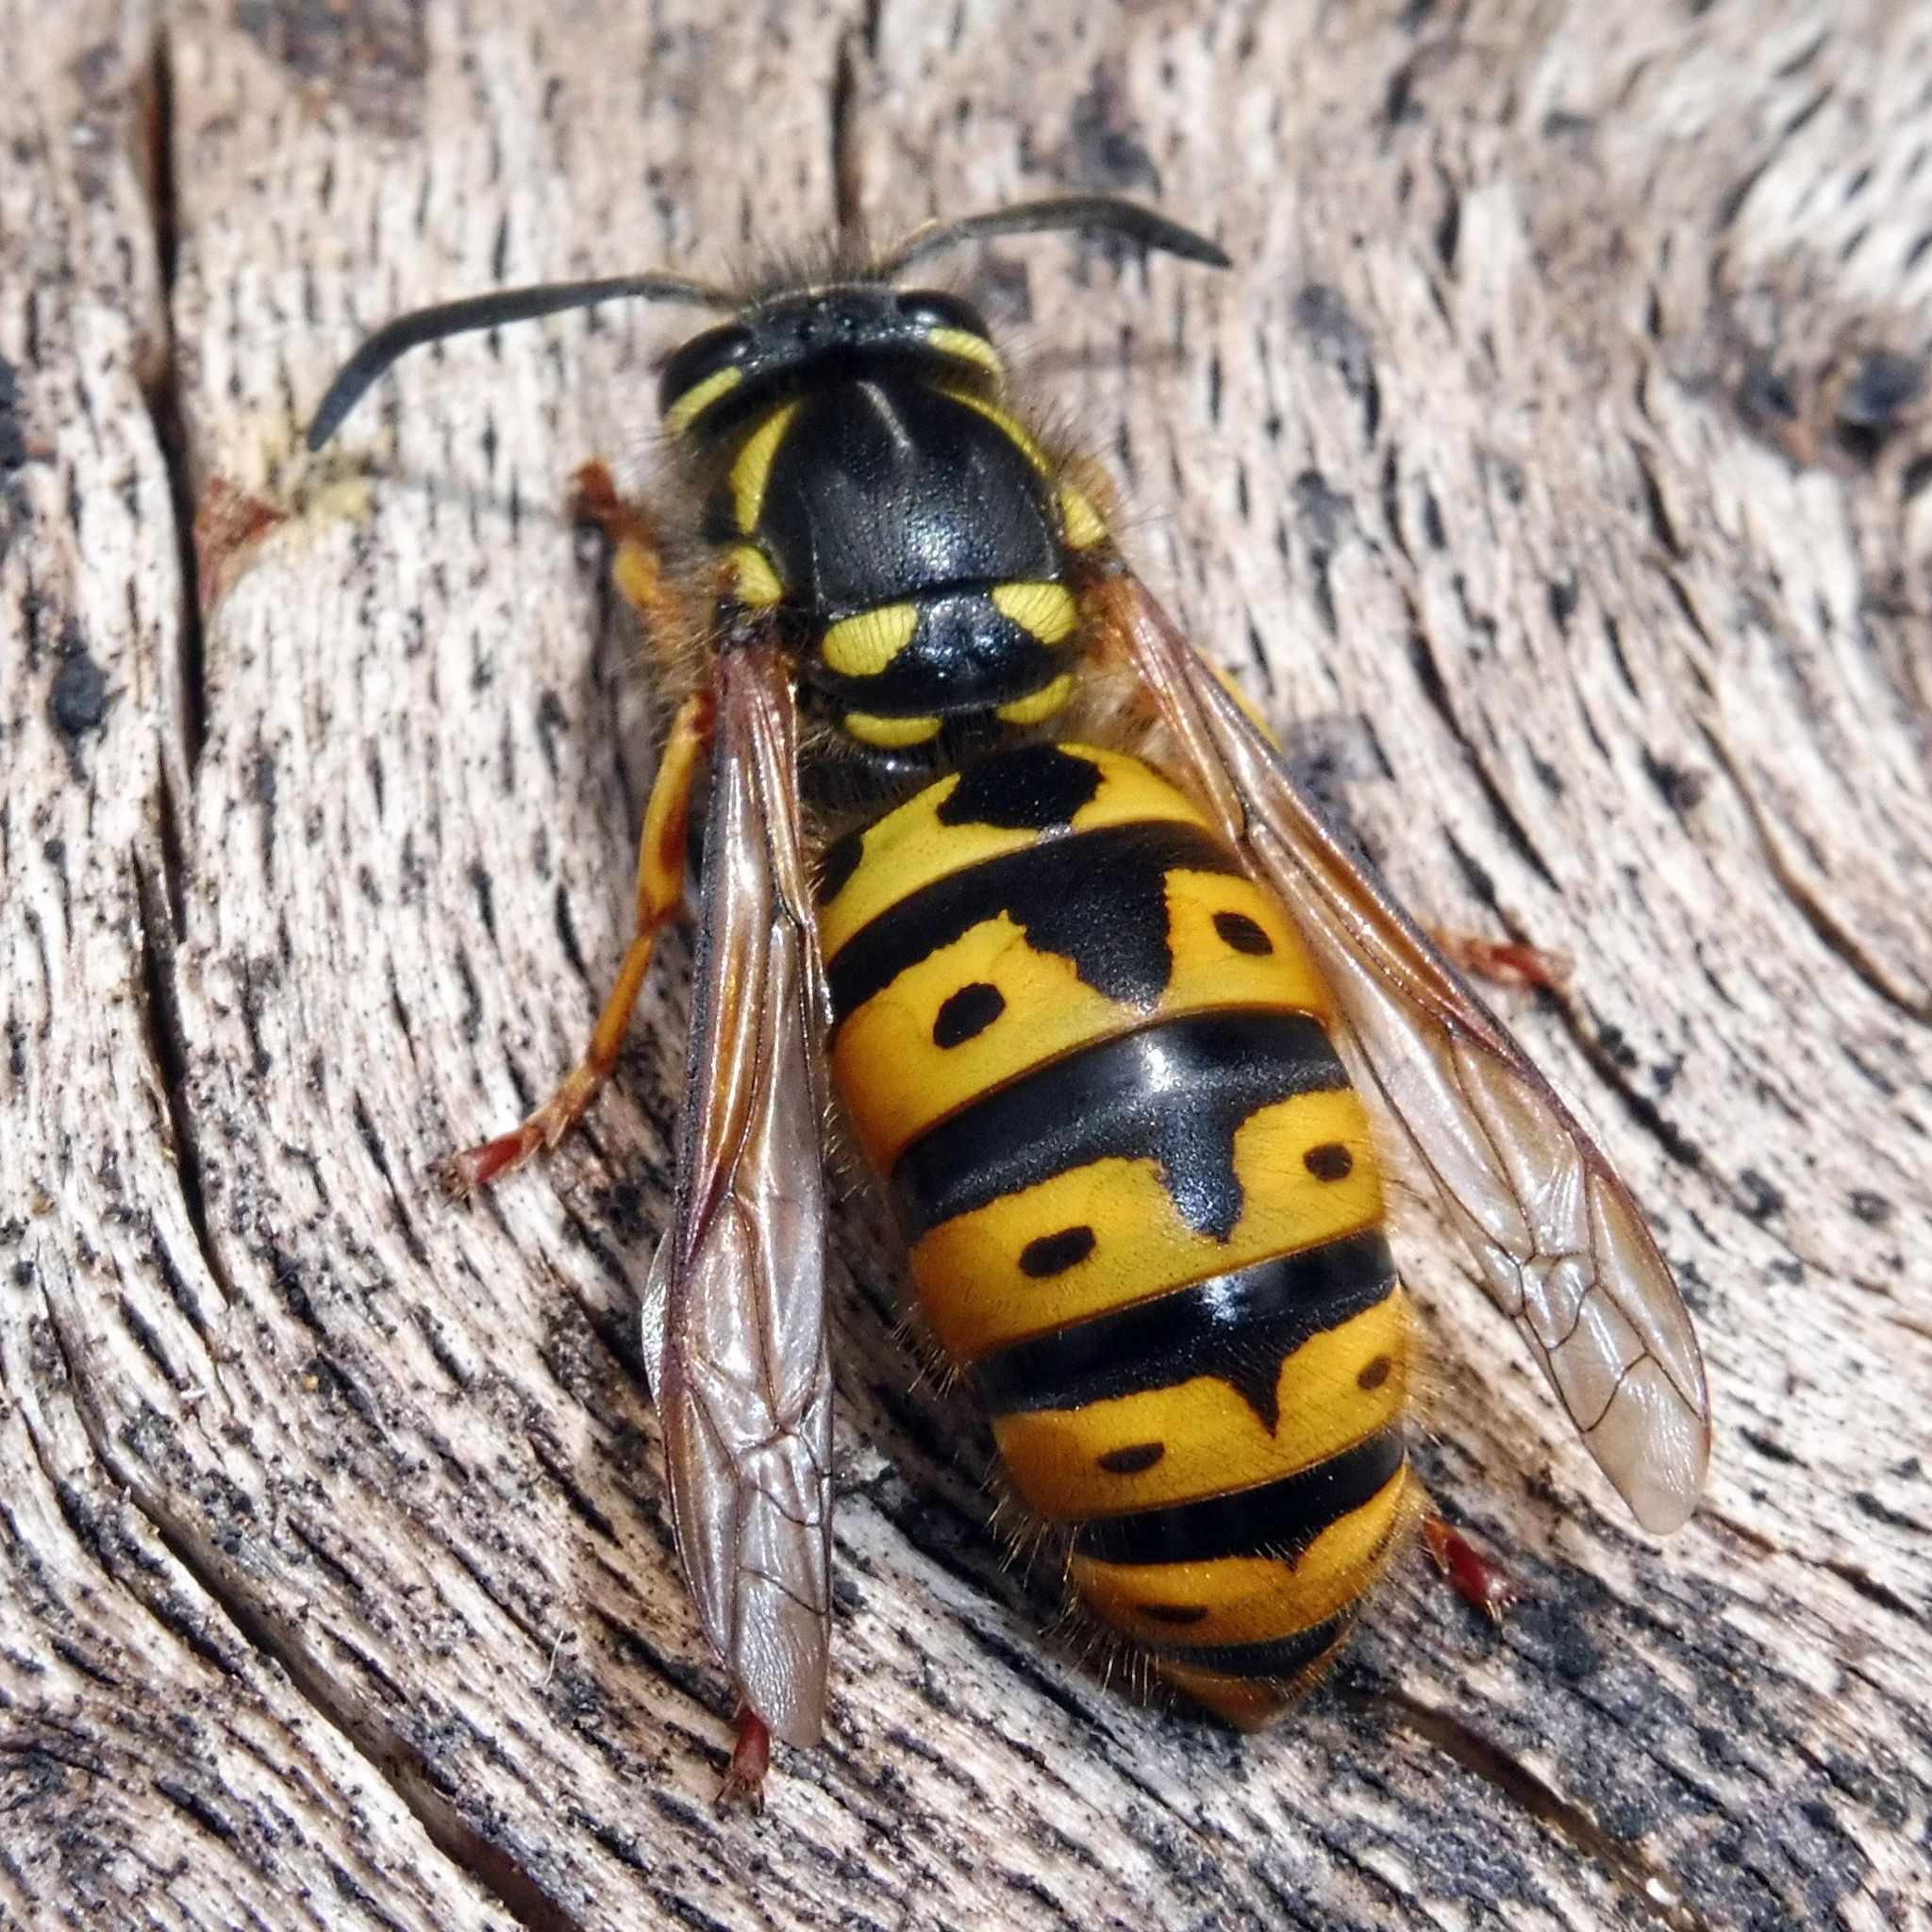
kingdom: Animalia
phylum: Arthropoda
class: Insecta
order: Hymenoptera
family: Vespidae
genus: Vespula
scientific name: Vespula germanica
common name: German wasp
